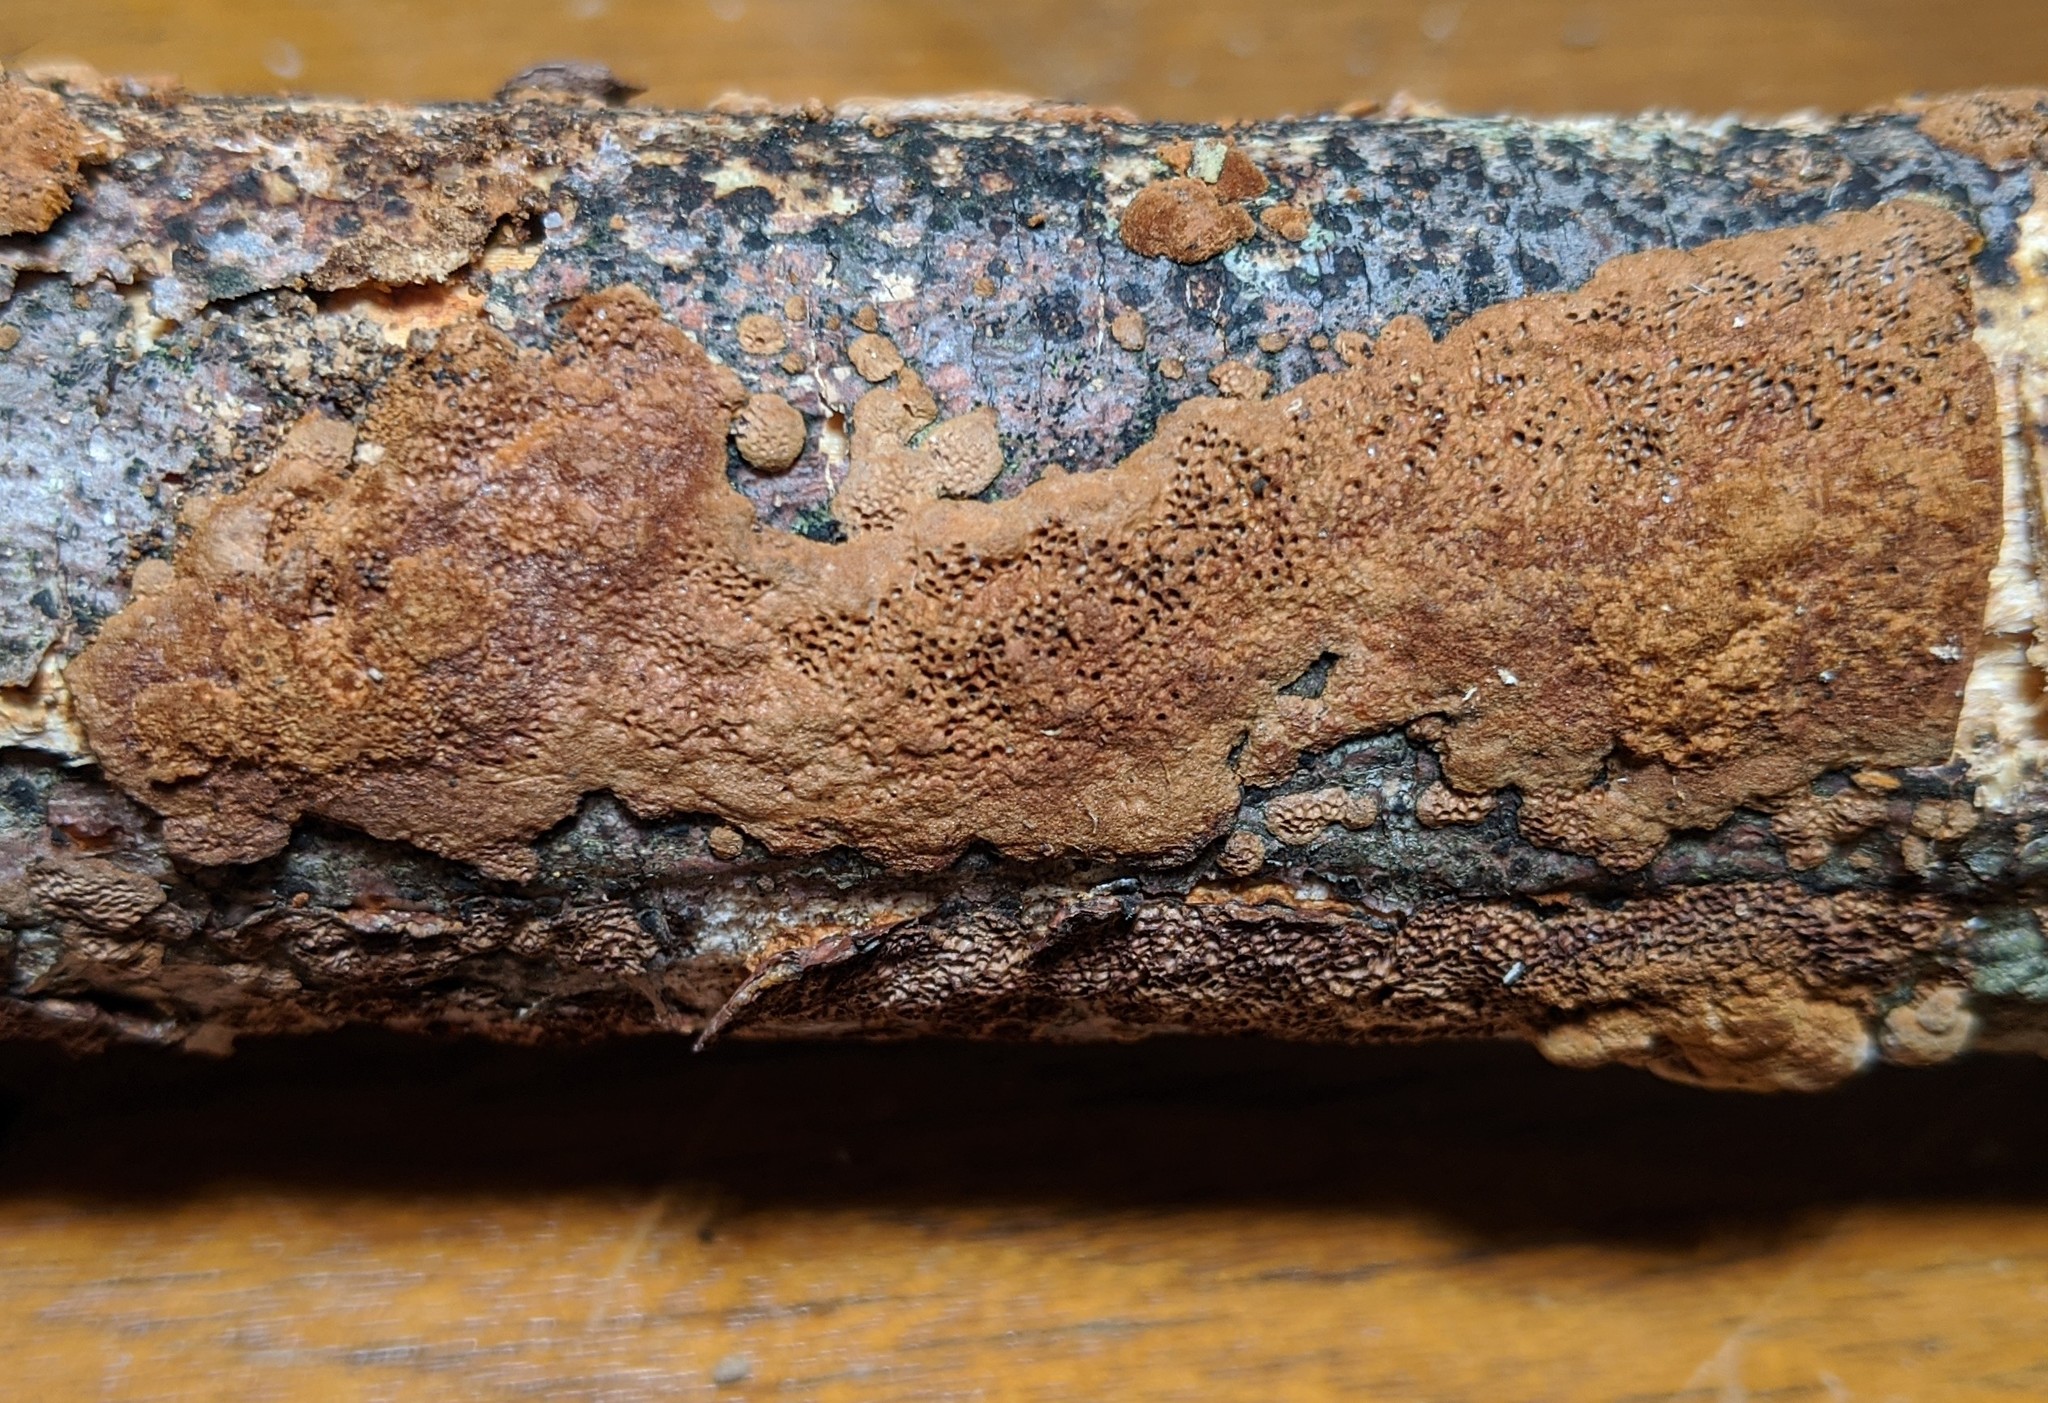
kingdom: Fungi
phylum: Basidiomycota
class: Agaricomycetes
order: Hymenochaetales
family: Hymenochaetaceae
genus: Fuscoporia
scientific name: Fuscoporia contigua
